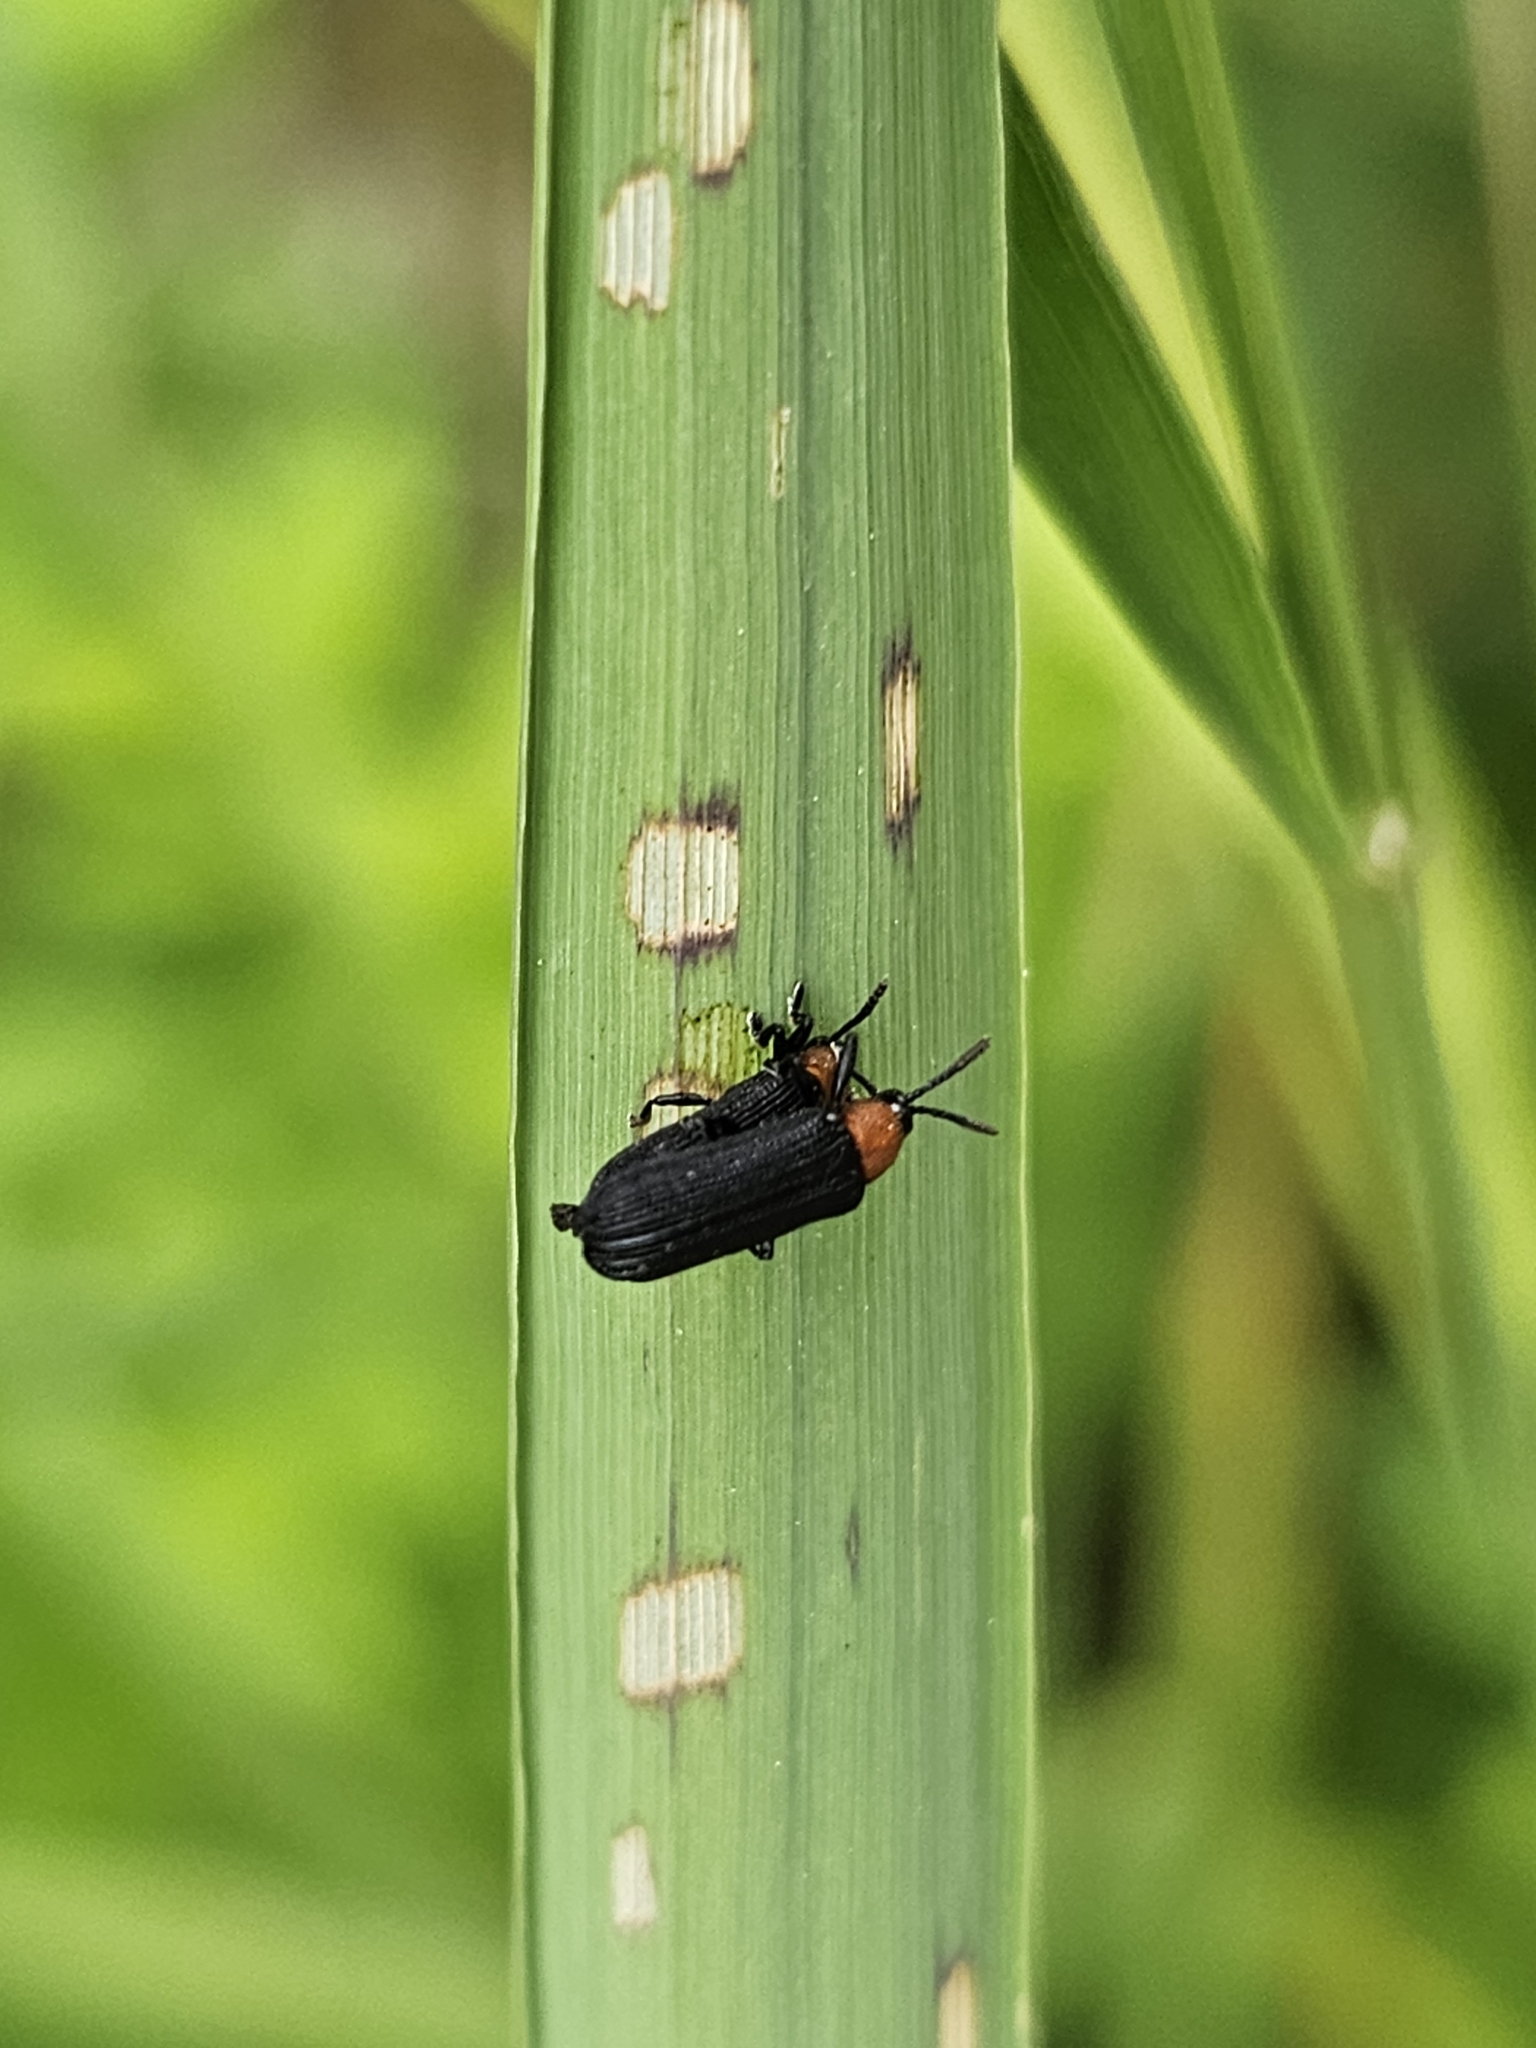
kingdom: Animalia
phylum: Arthropoda
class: Insecta
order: Coleoptera
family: Chrysomelidae
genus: Chalepus
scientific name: Chalepus walshii
